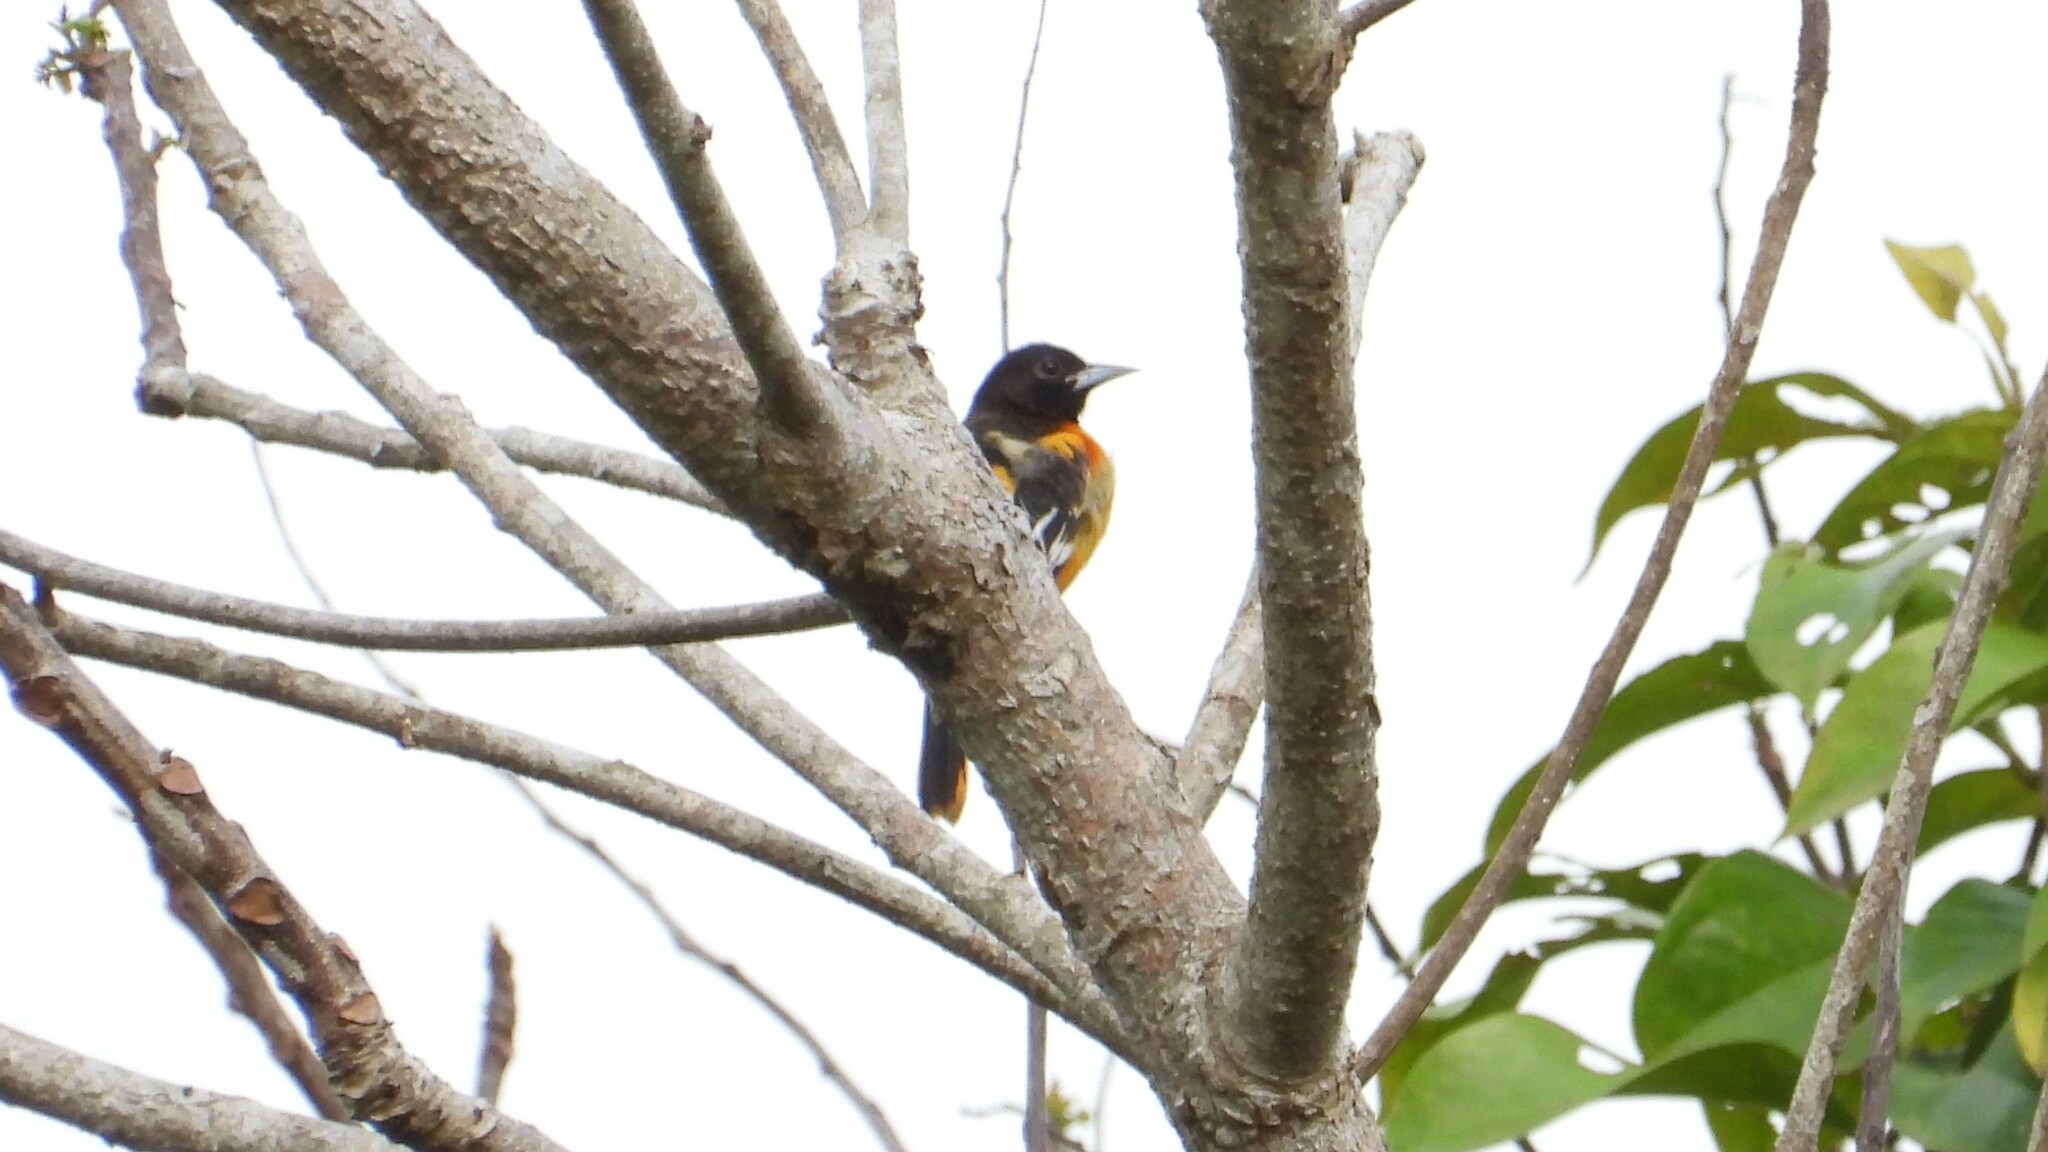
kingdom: Animalia
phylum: Chordata
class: Aves
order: Passeriformes
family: Icteridae
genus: Icterus
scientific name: Icterus galbula
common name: Baltimore oriole
